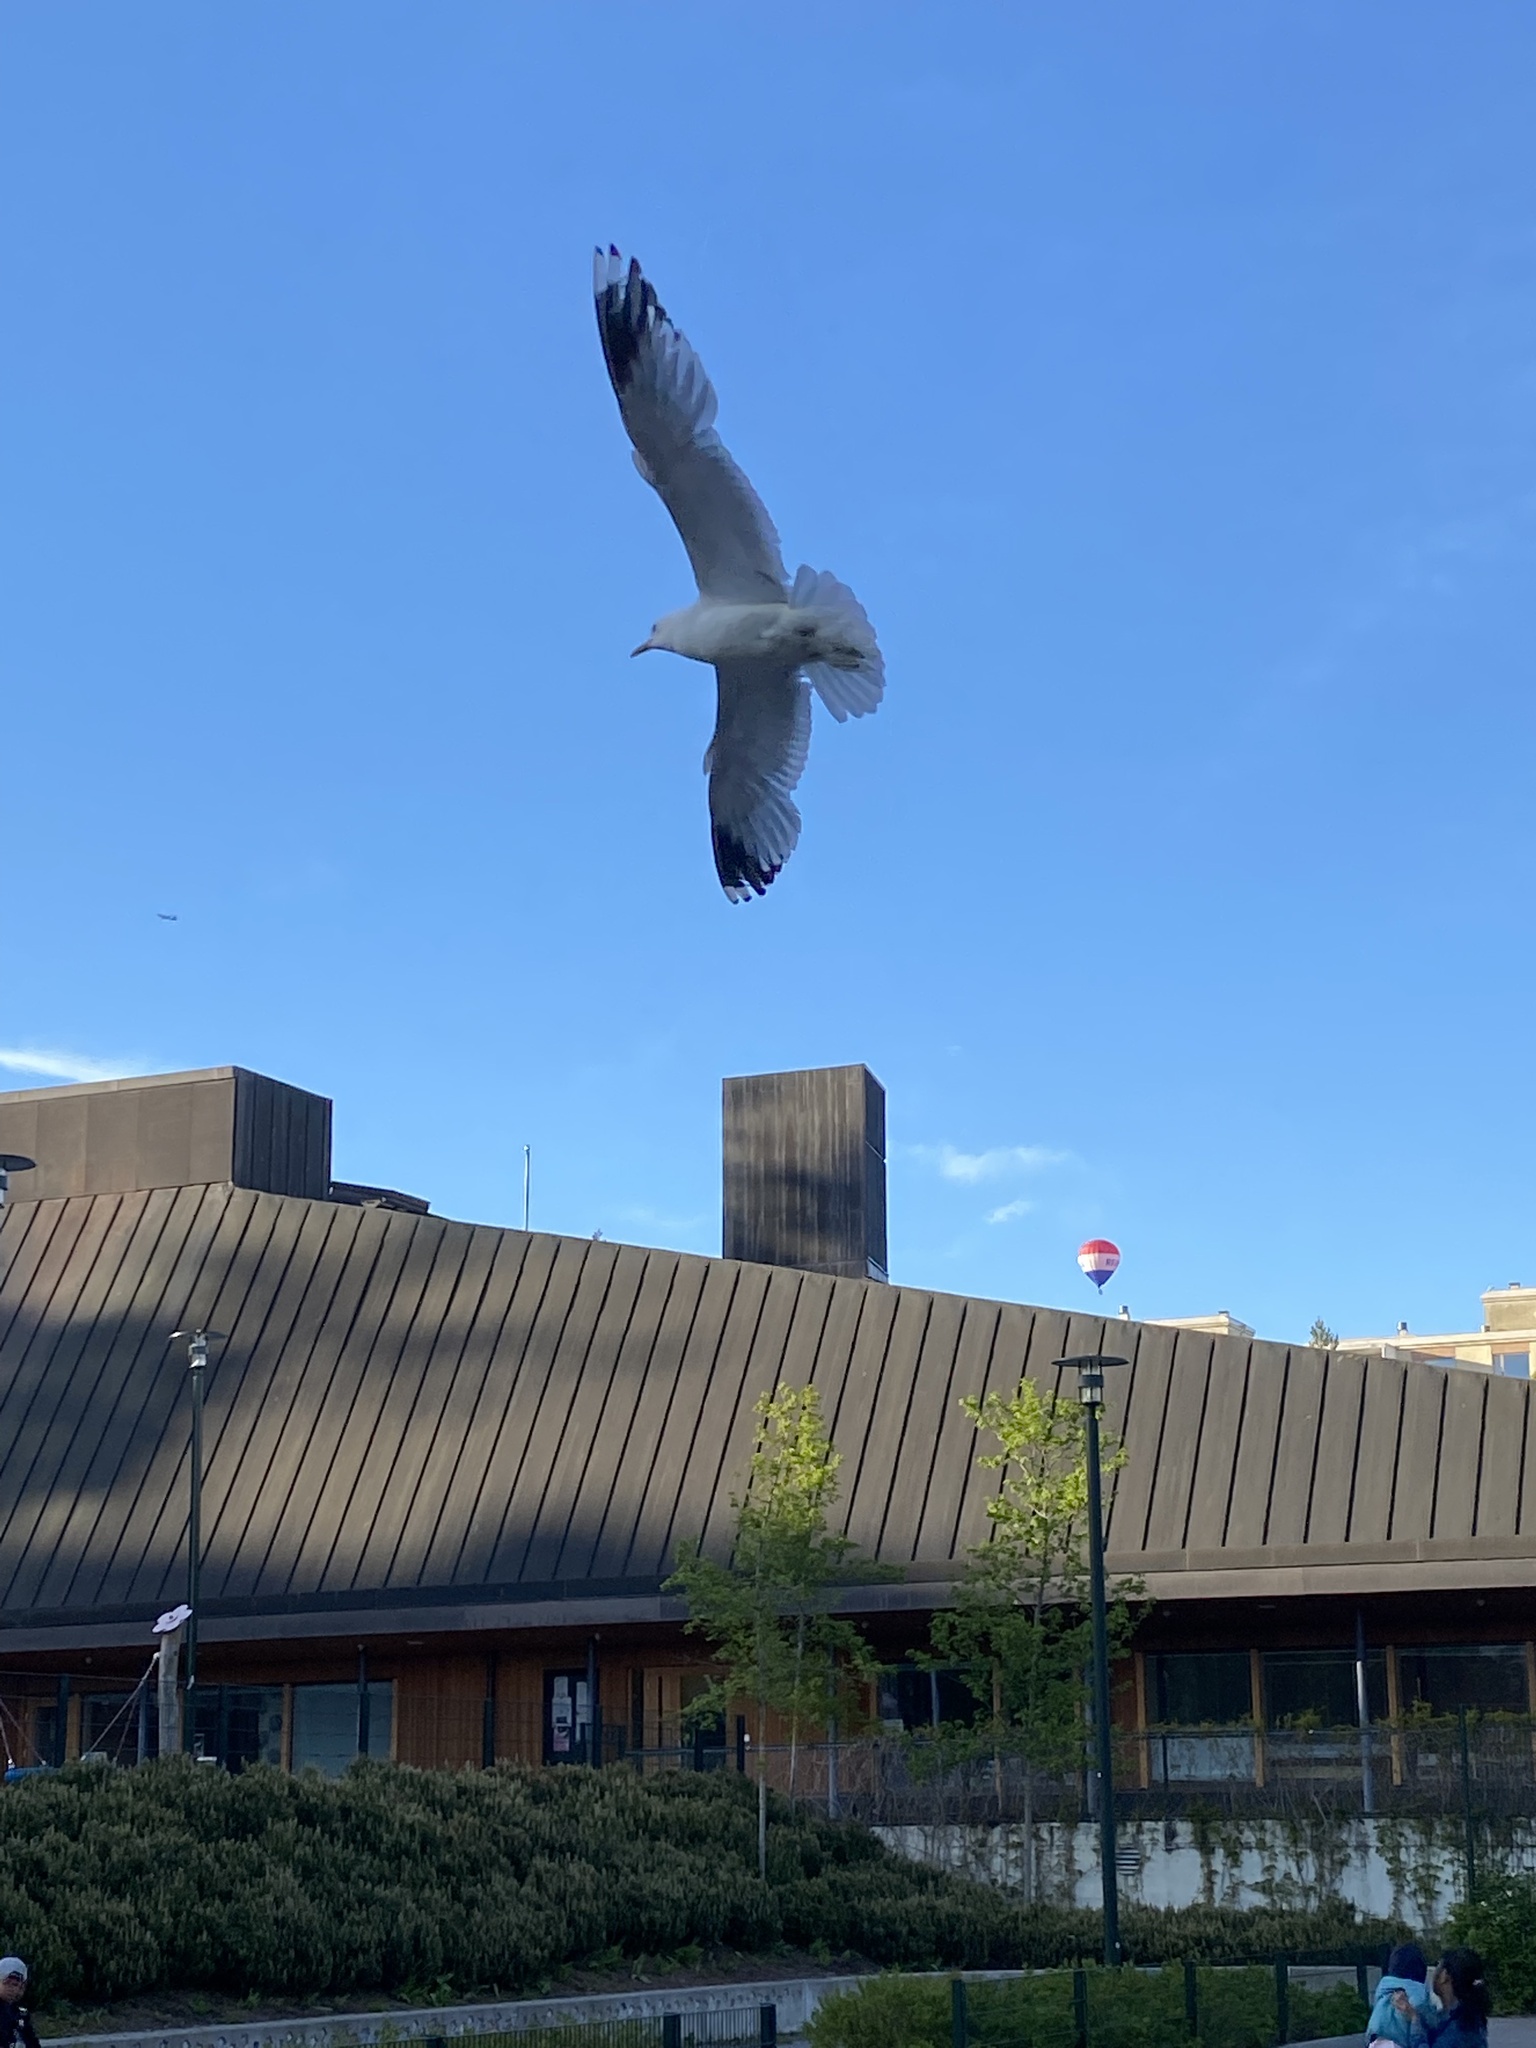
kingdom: Animalia
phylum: Chordata
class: Aves
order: Charadriiformes
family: Laridae
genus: Larus
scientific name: Larus canus
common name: Mew gull
